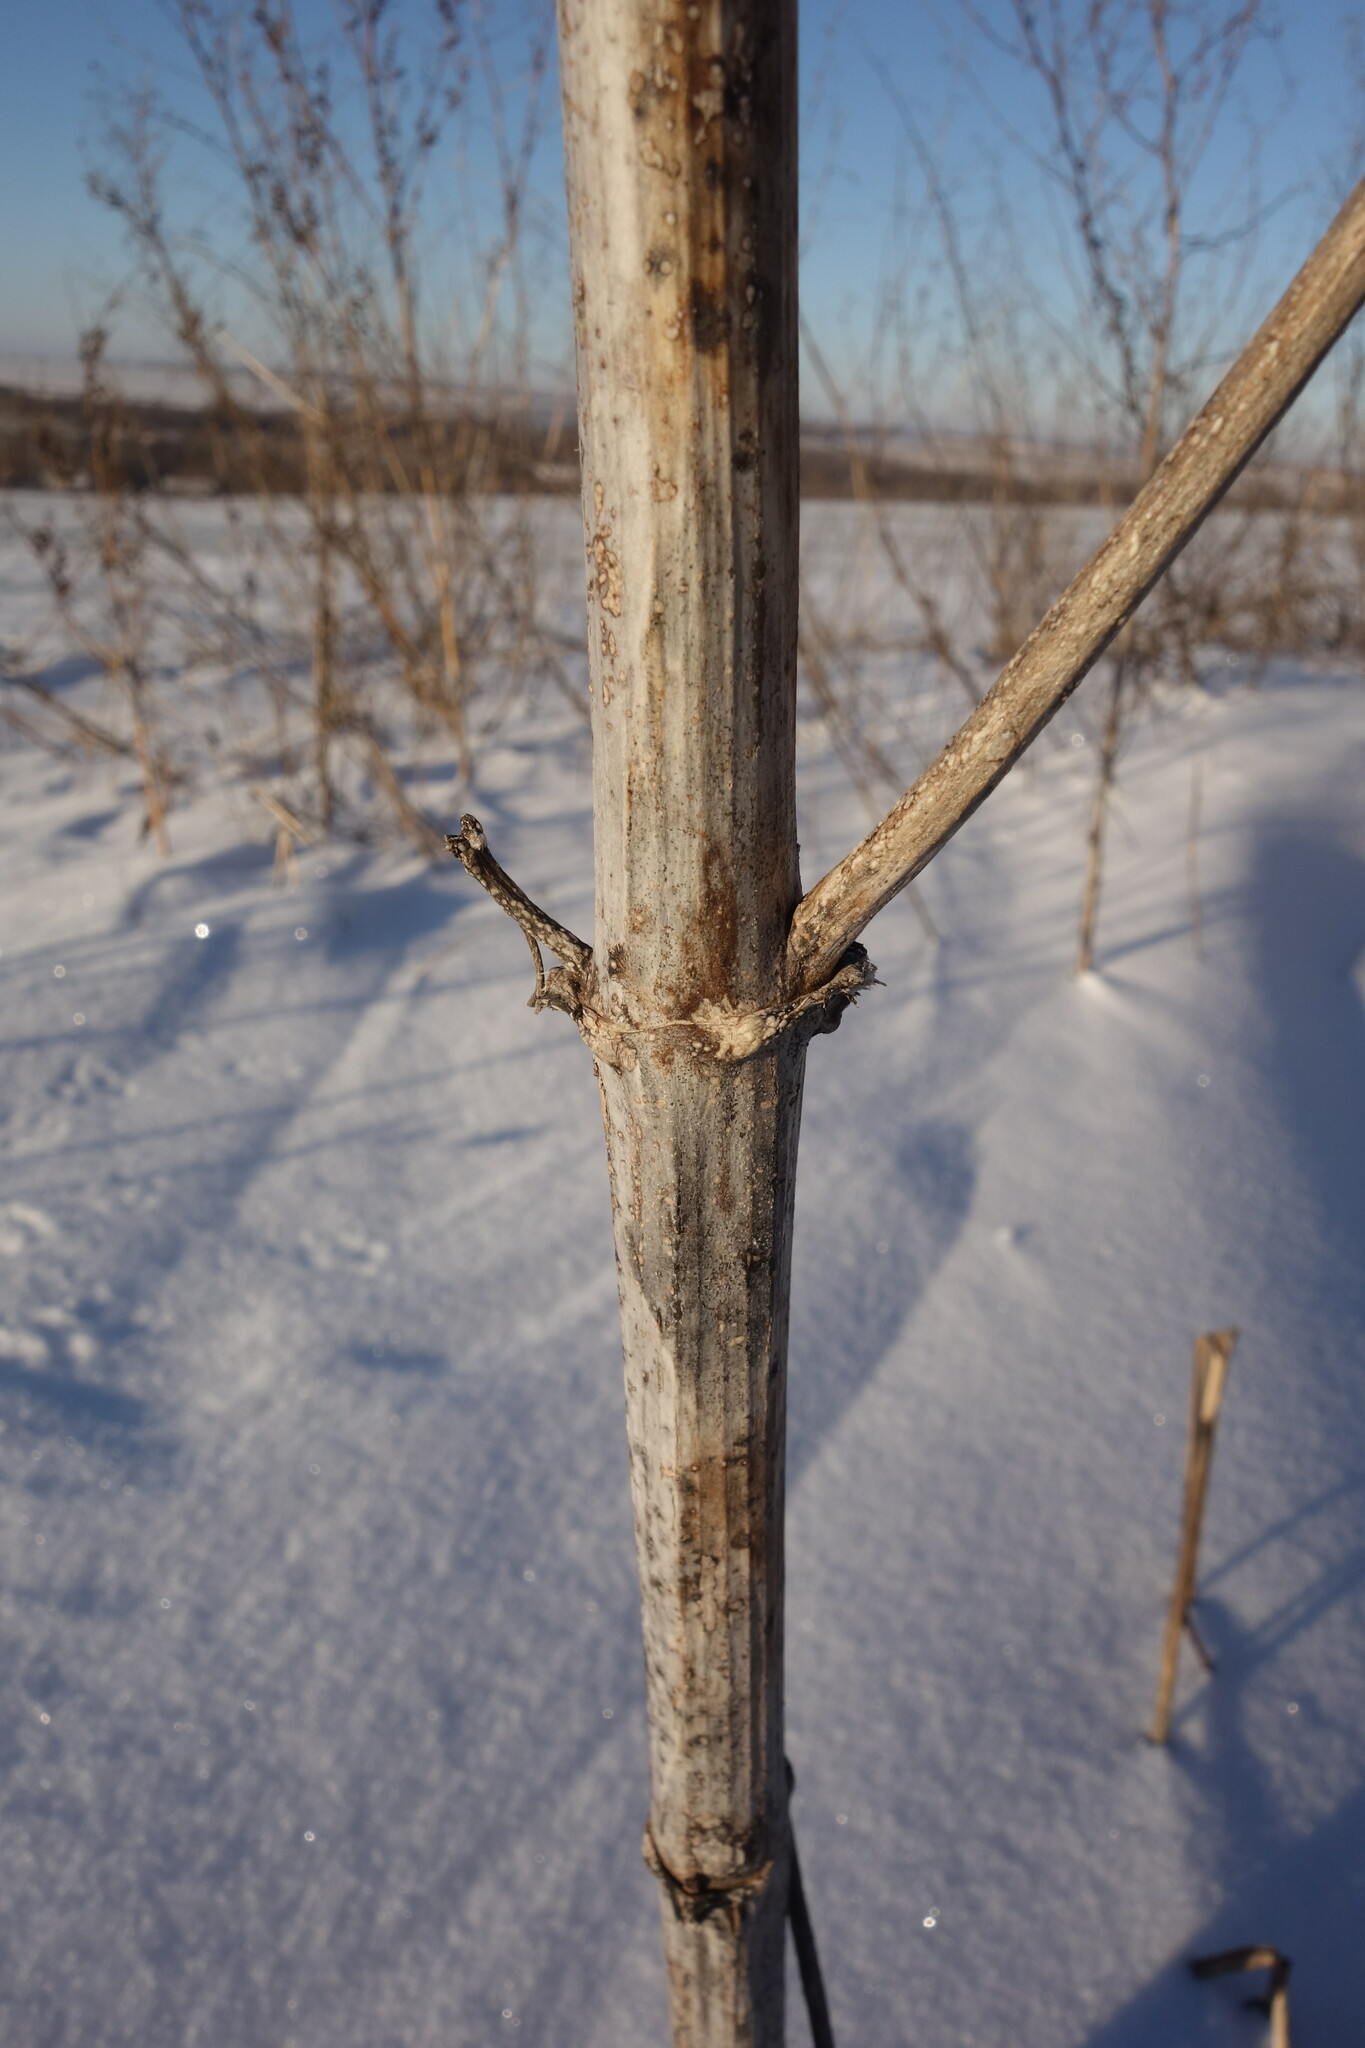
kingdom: Plantae
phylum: Tracheophyta
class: Magnoliopsida
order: Asterales
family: Asteraceae
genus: Cyclachaena
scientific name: Cyclachaena xanthiifolia
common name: Giant sumpweed
